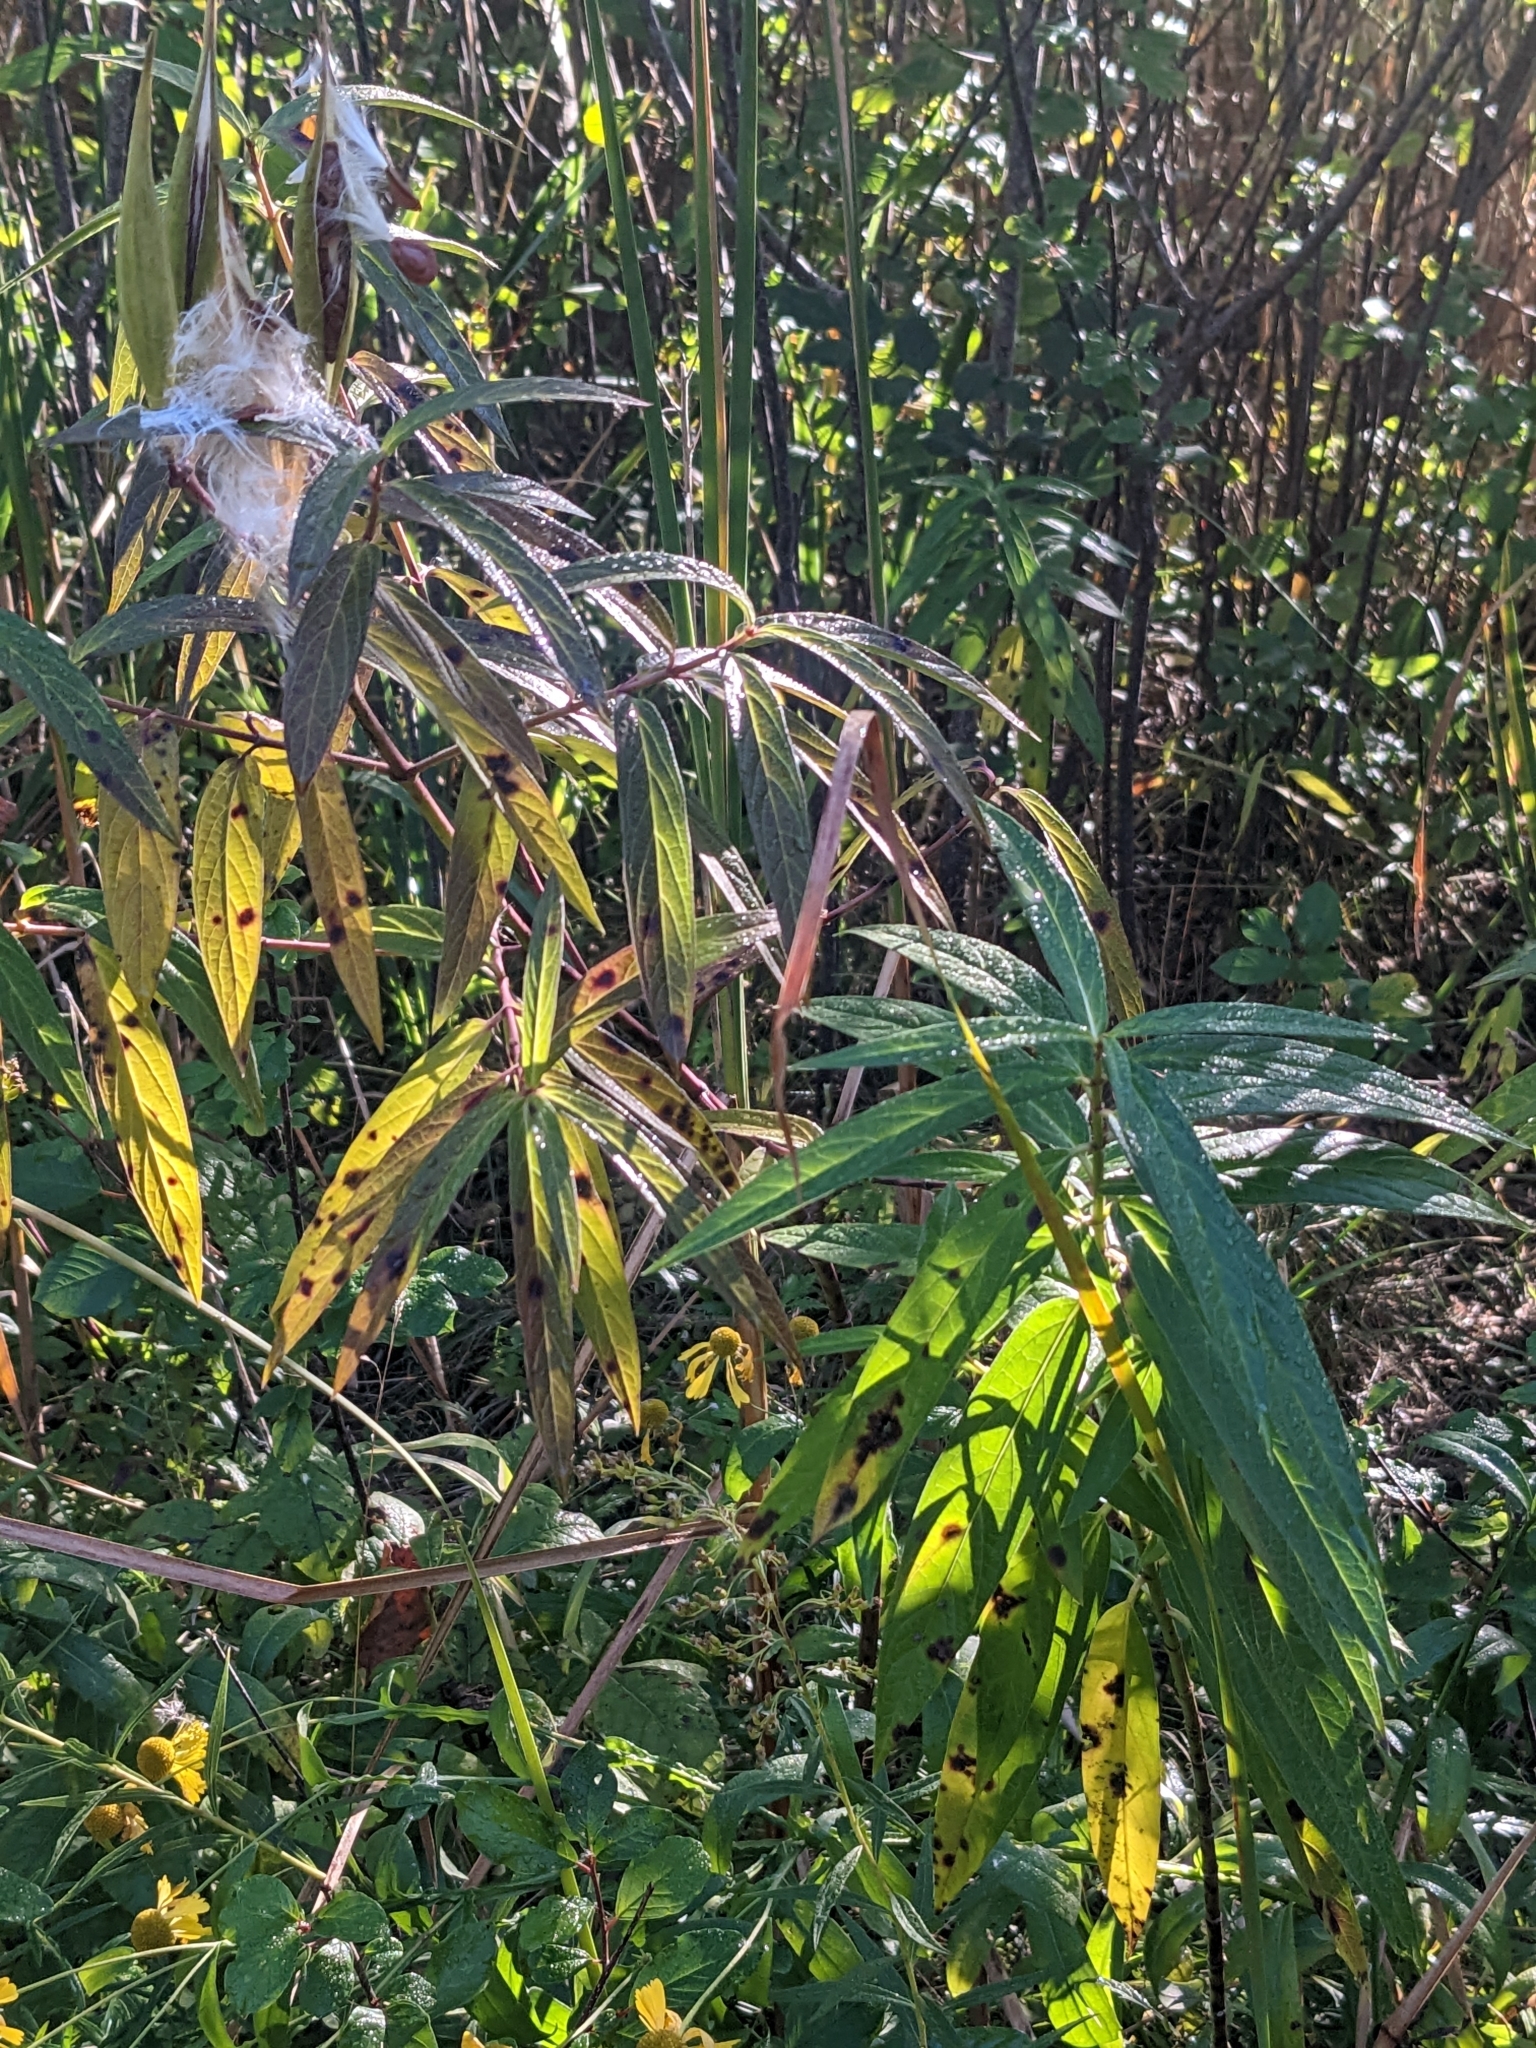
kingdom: Plantae
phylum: Tracheophyta
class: Magnoliopsida
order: Gentianales
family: Apocynaceae
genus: Asclepias
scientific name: Asclepias incarnata
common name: Swamp milkweed
